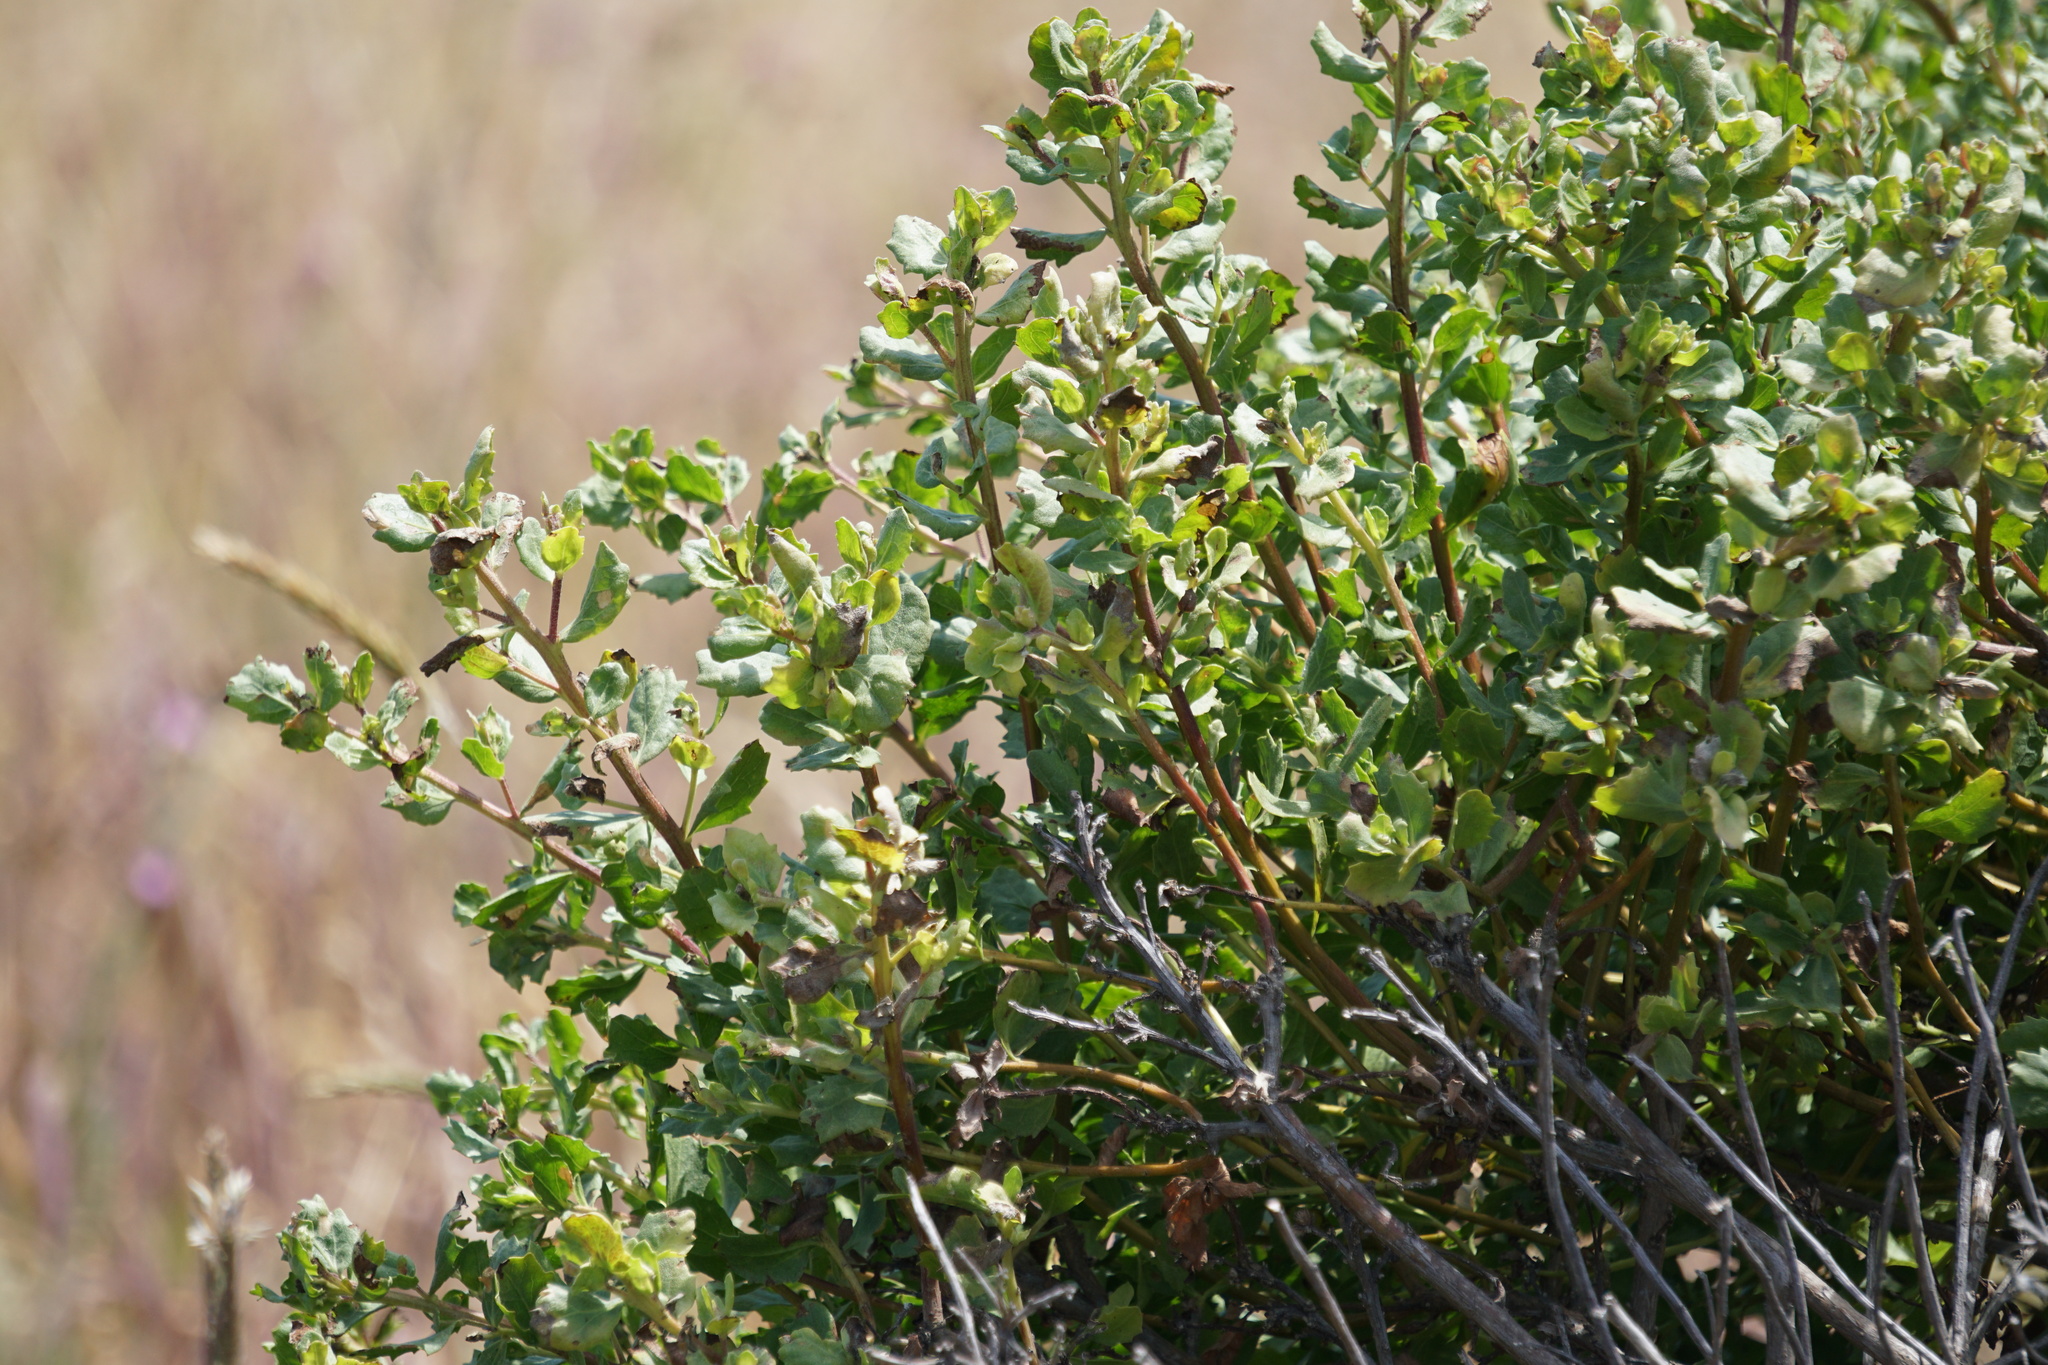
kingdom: Plantae
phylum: Tracheophyta
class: Magnoliopsida
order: Asterales
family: Asteraceae
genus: Baccharis
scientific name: Baccharis pilularis
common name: Coyotebrush
